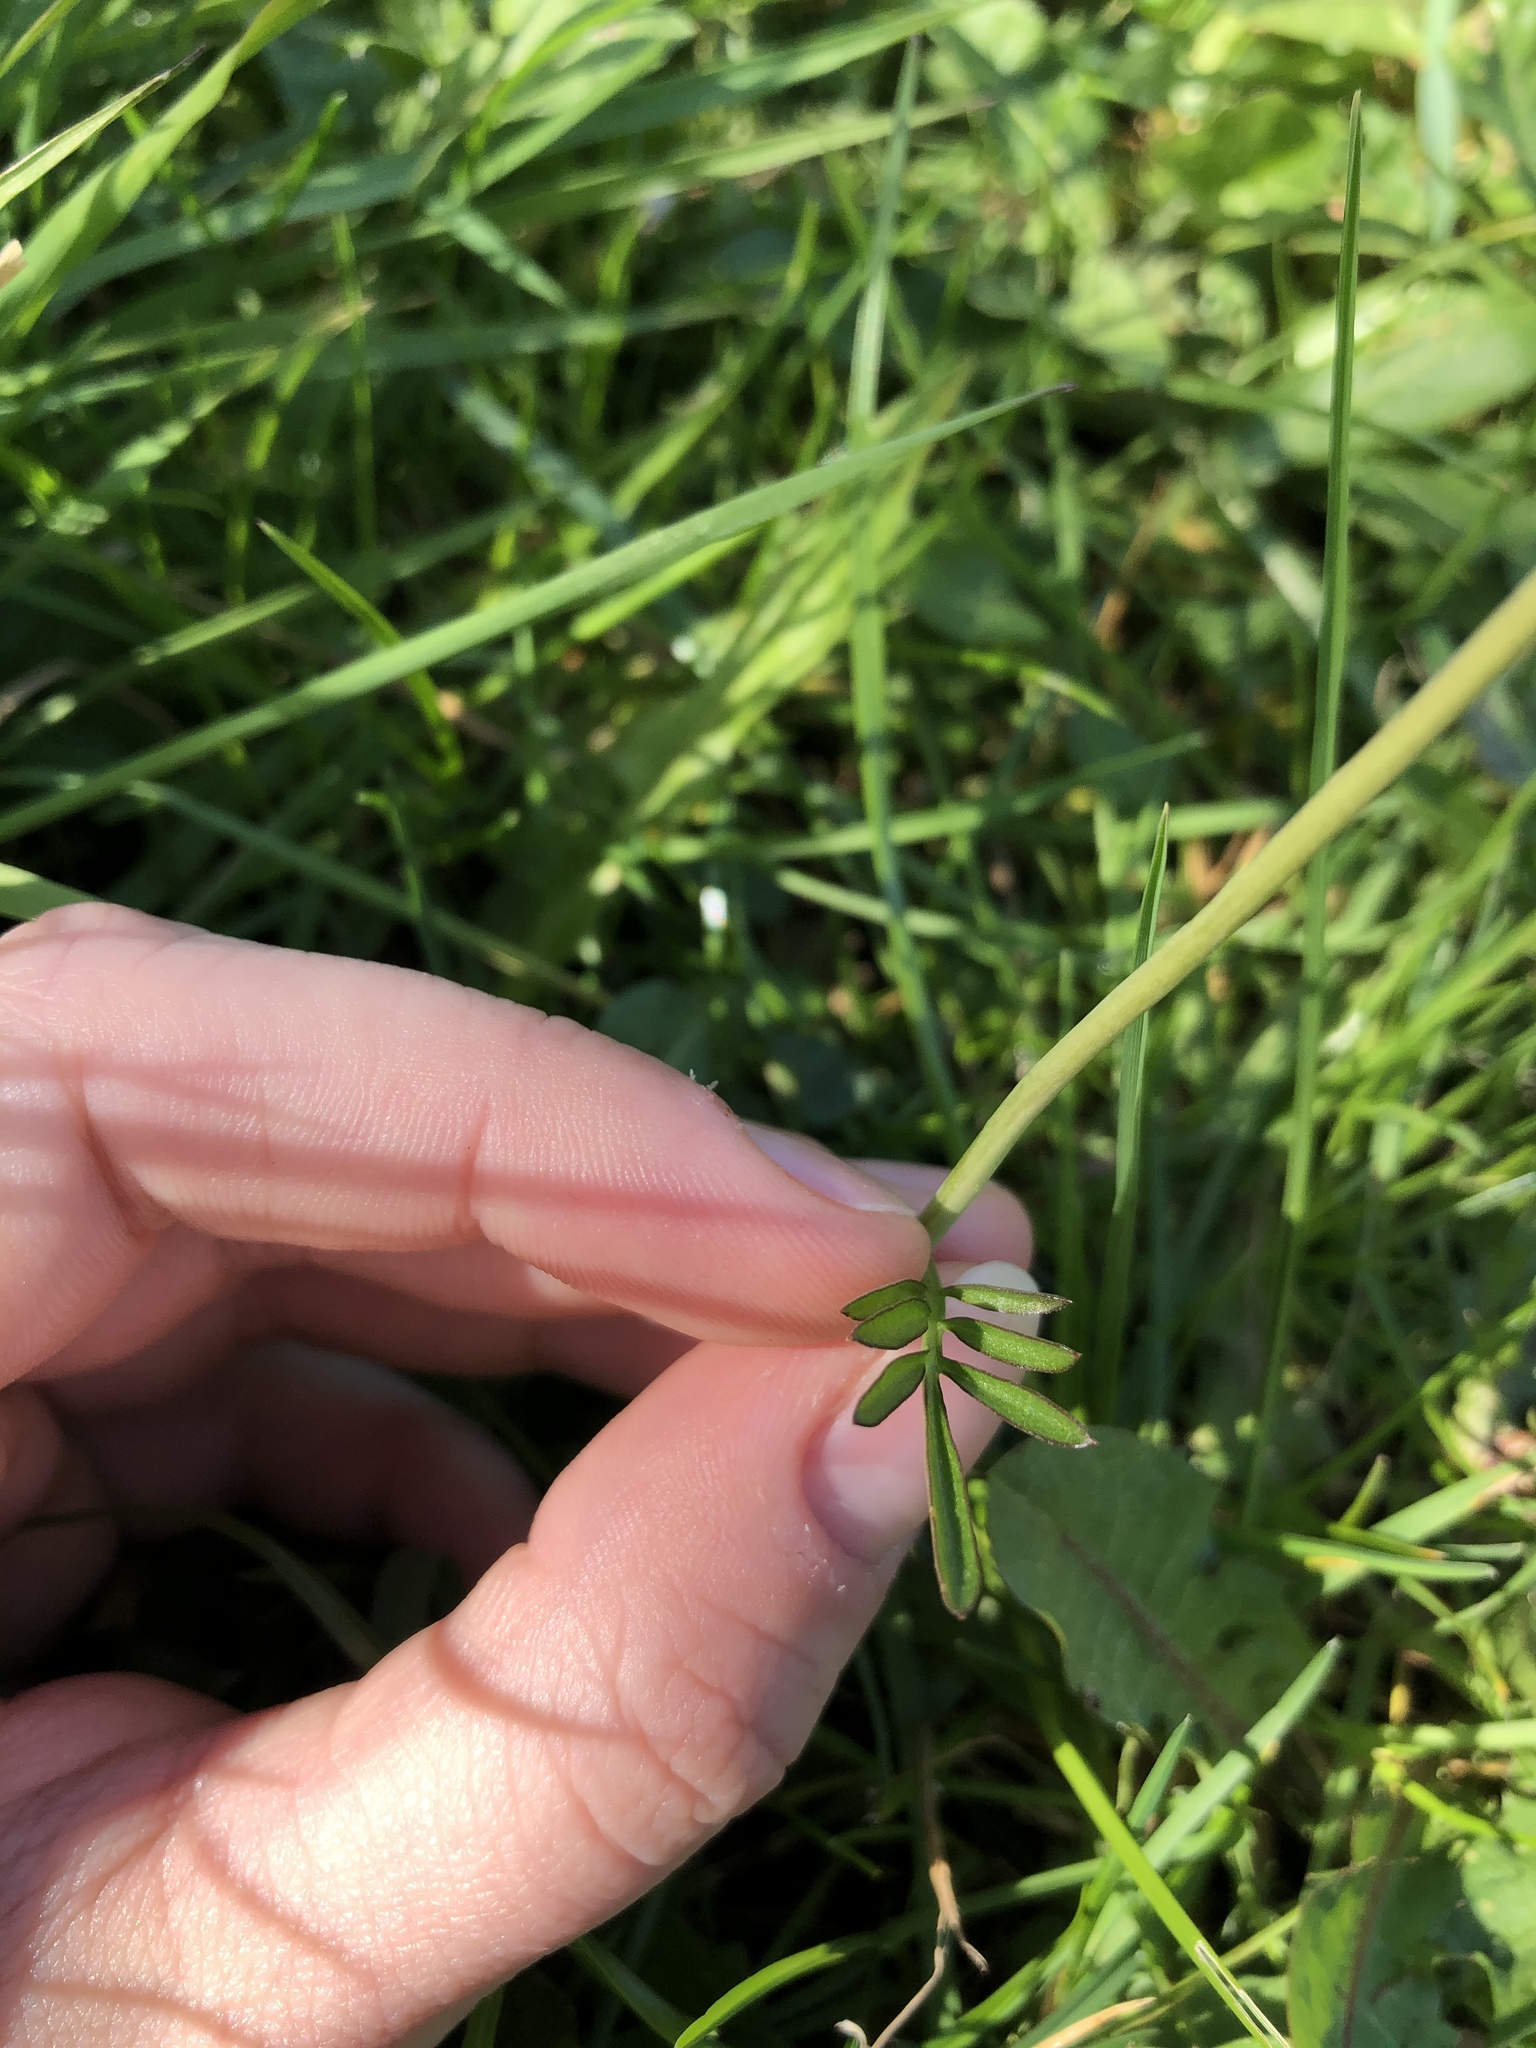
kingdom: Plantae
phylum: Tracheophyta
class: Magnoliopsida
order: Brassicales
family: Brassicaceae
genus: Cardamine
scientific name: Cardamine pratensis
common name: Cuckoo flower
